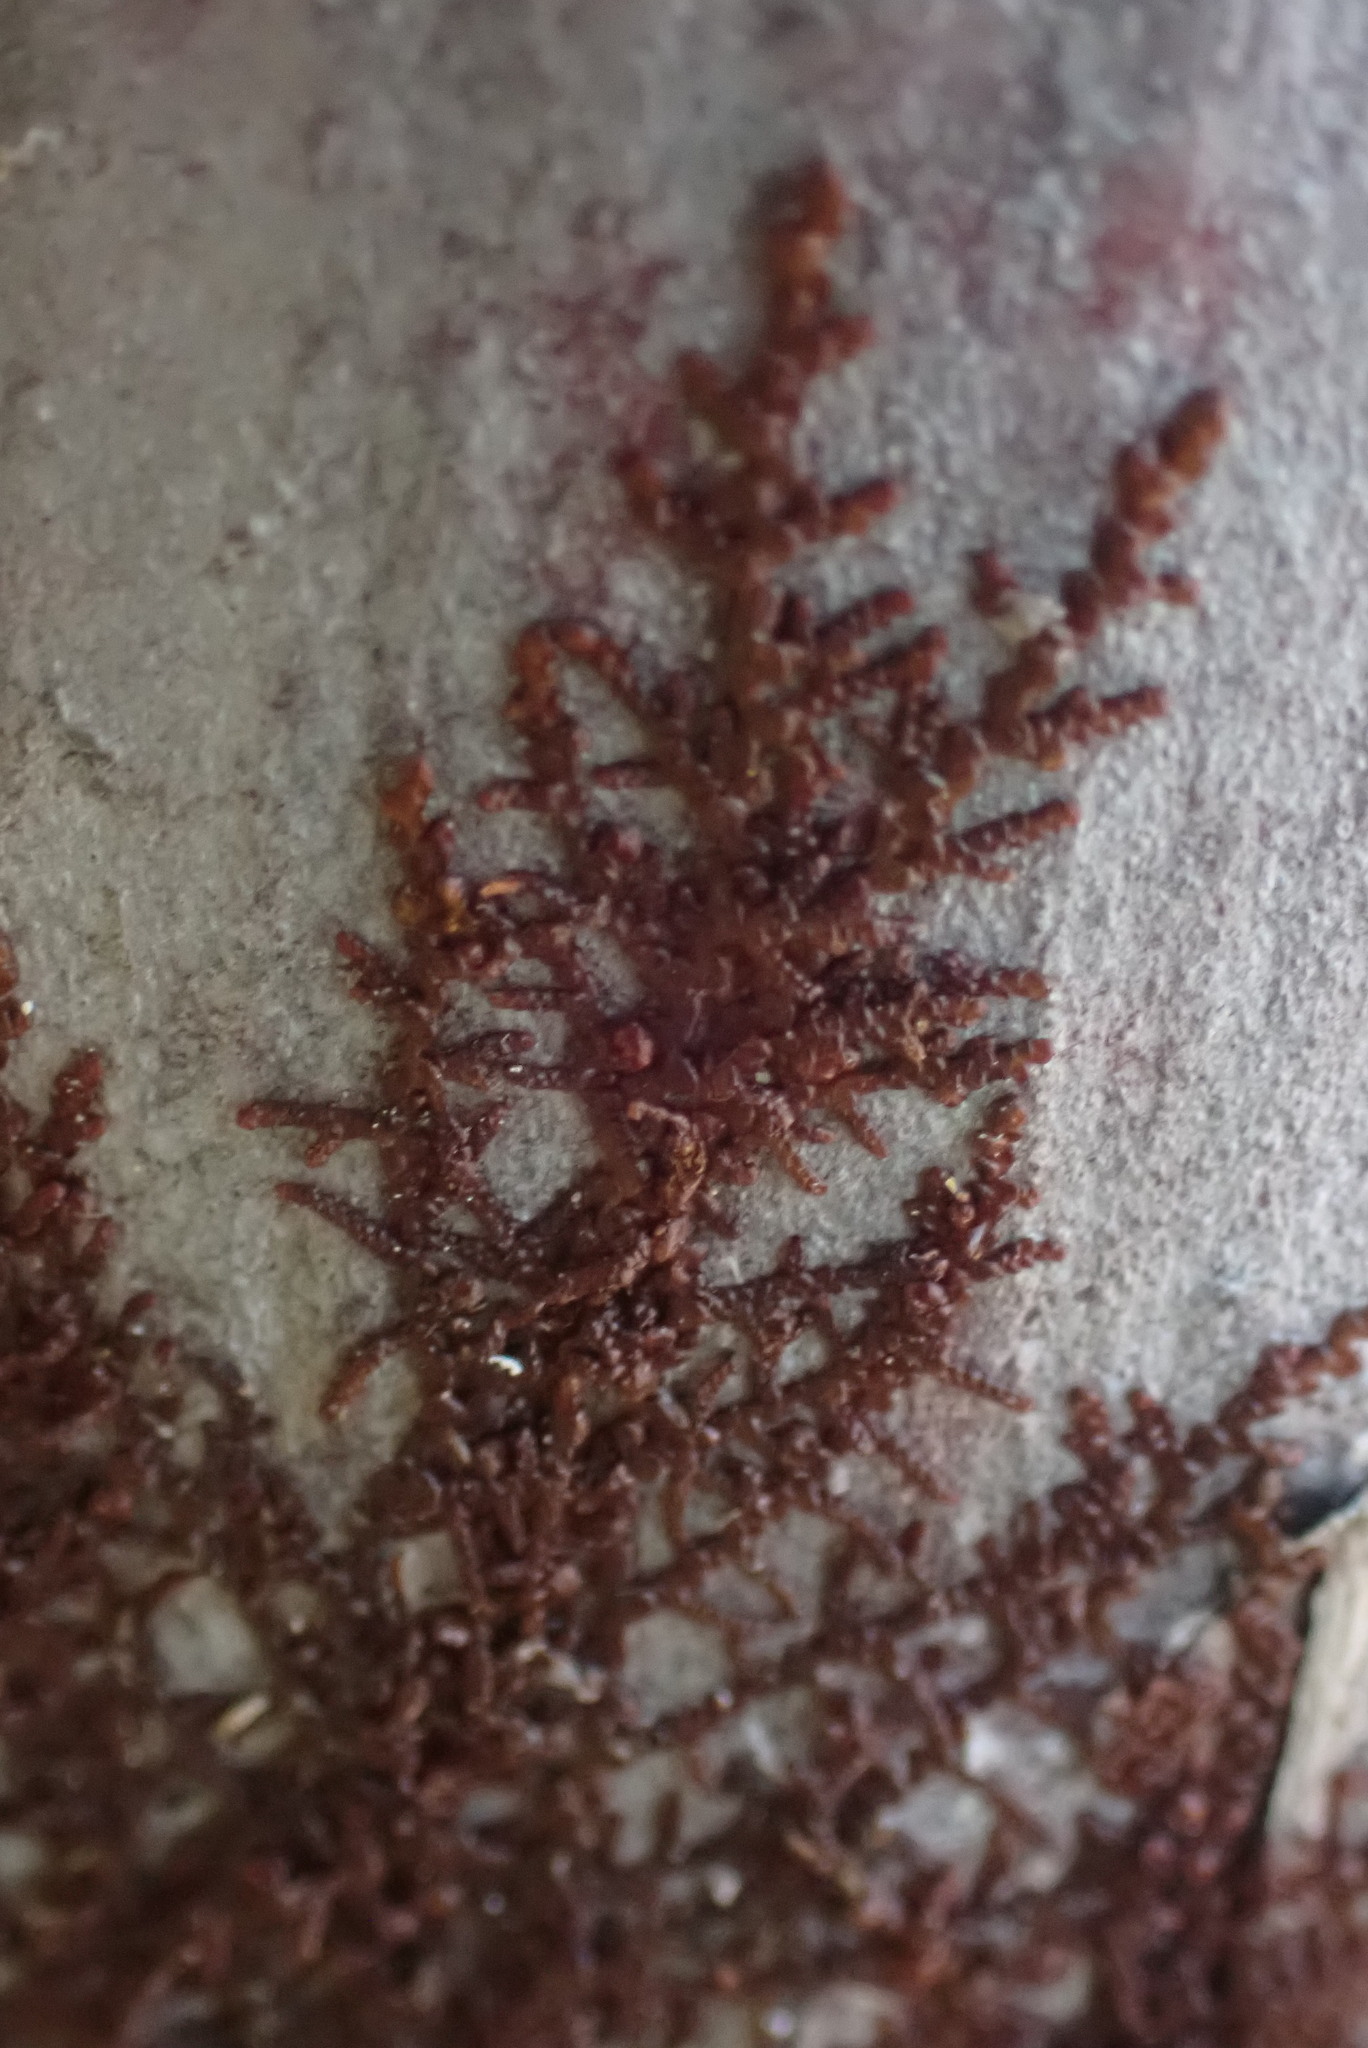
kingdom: Plantae
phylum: Marchantiophyta
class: Jungermanniopsida
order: Porellales
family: Frullaniaceae
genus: Frullania
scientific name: Frullania nisquallensis
